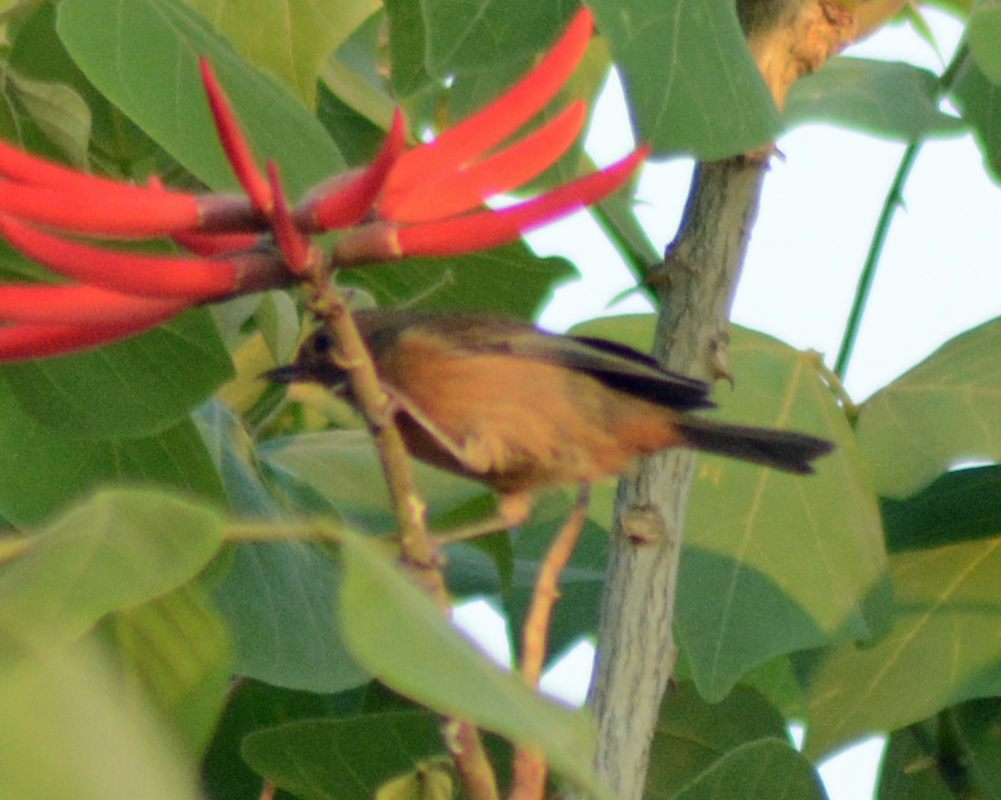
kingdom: Animalia
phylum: Chordata
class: Aves
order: Passeriformes
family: Thraupidae
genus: Diglossa
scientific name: Diglossa baritula
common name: Cinnamon-bellied flowerpiercer
